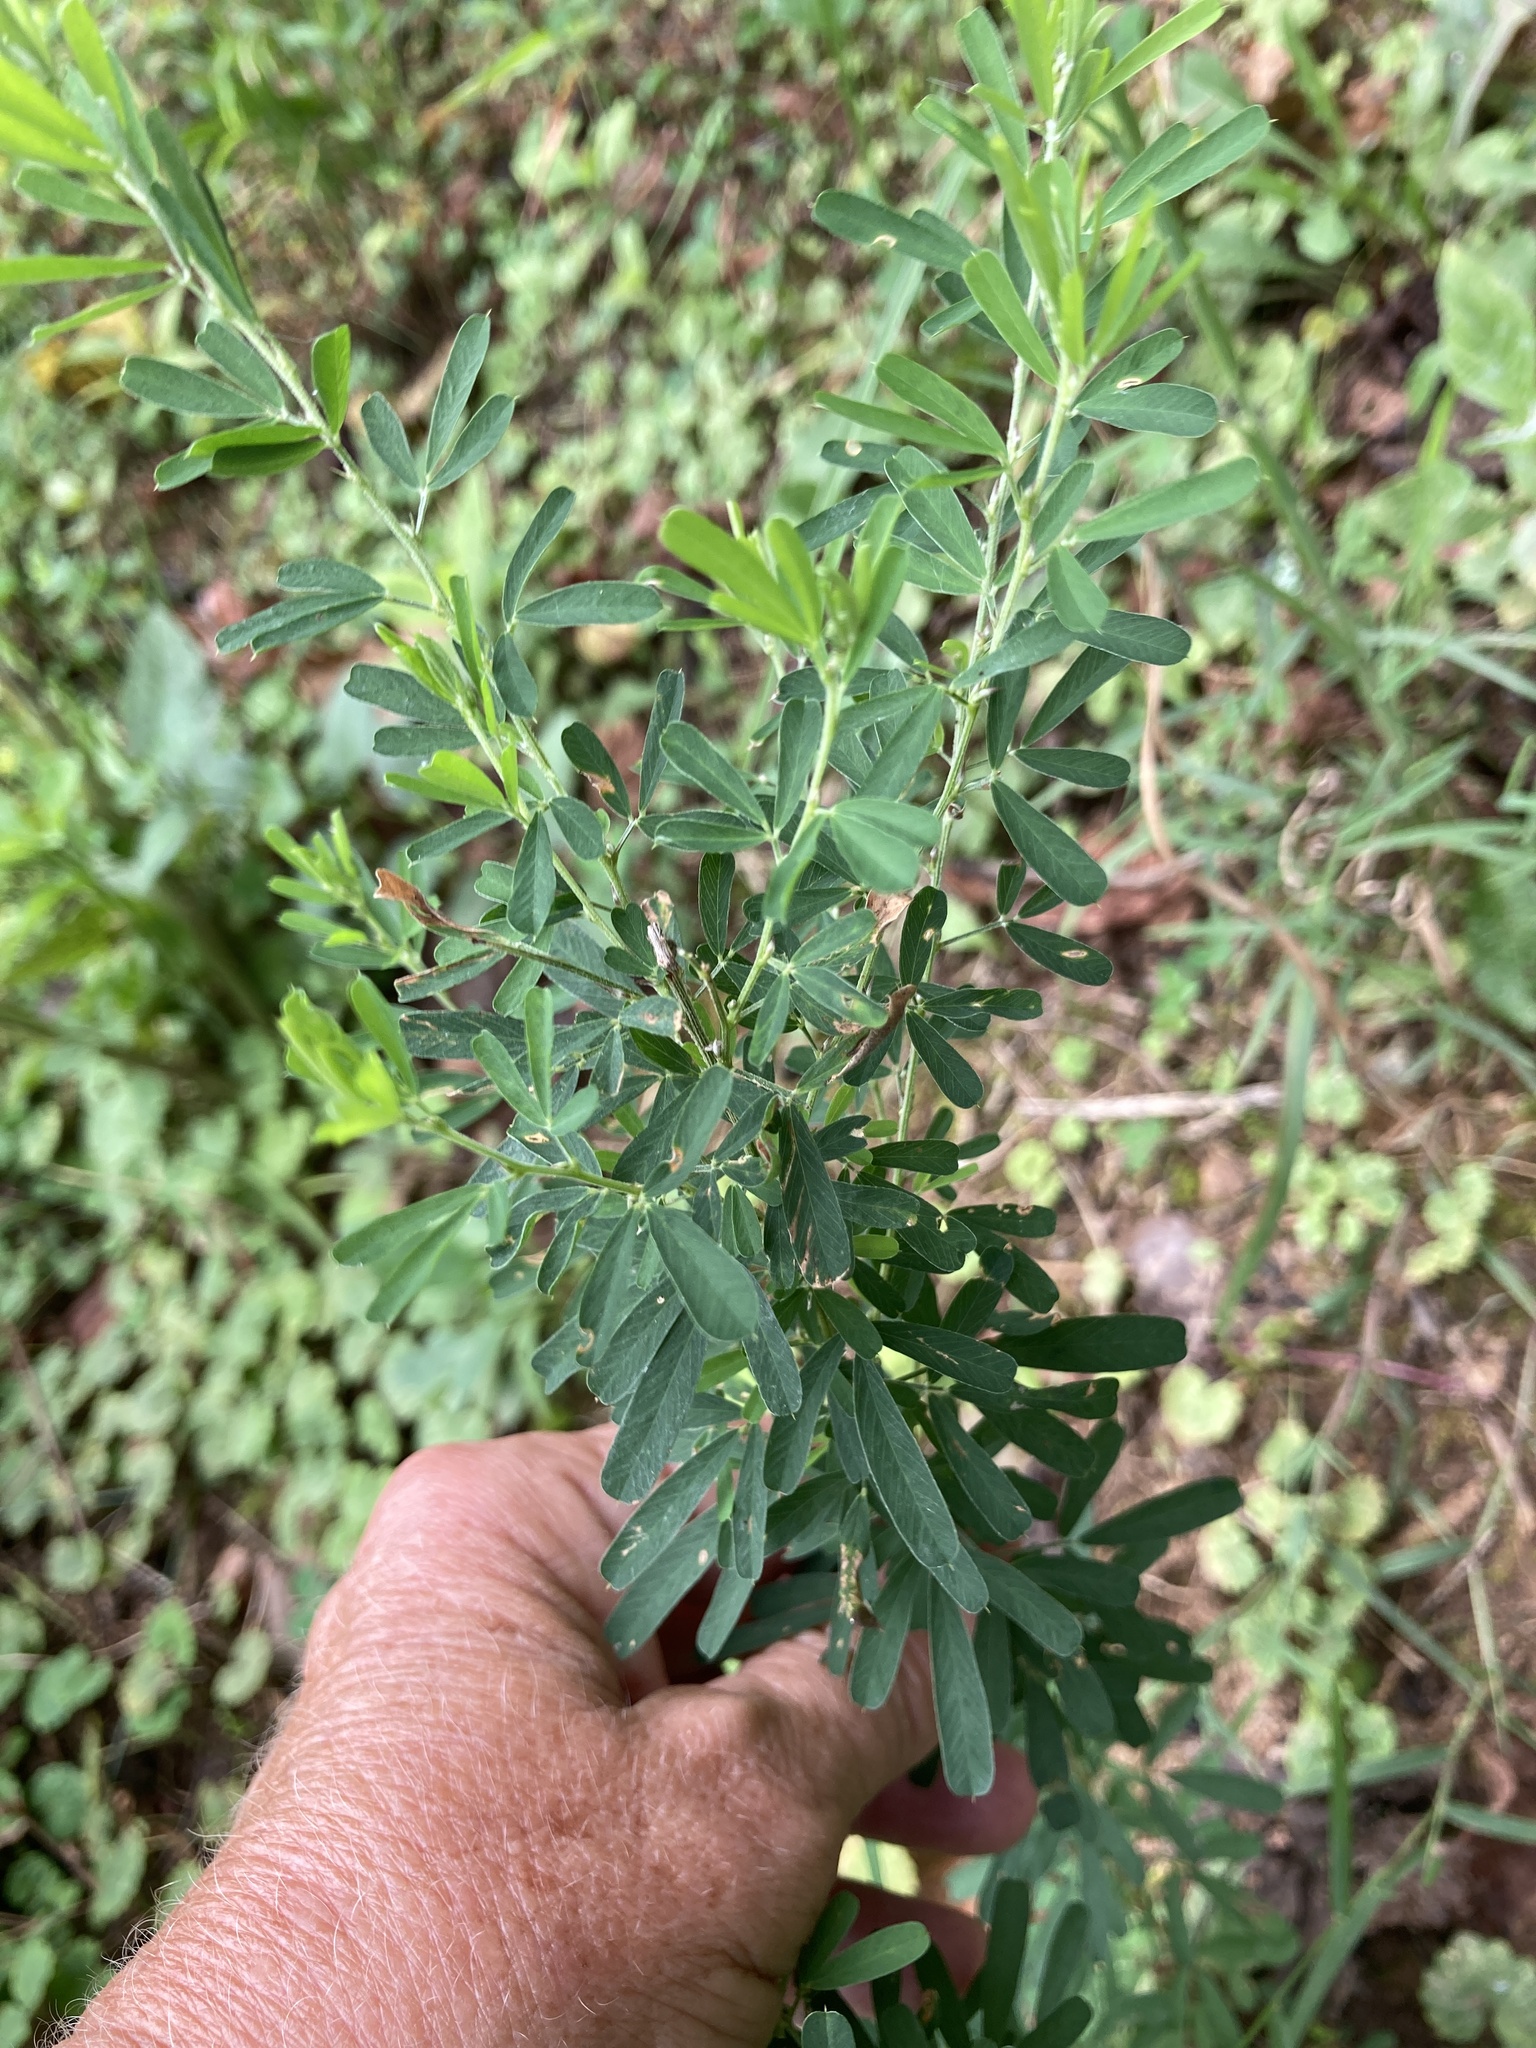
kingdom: Plantae
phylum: Tracheophyta
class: Magnoliopsida
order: Fabales
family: Fabaceae
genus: Lespedeza
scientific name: Lespedeza cuneata
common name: Chinese bush-clover
